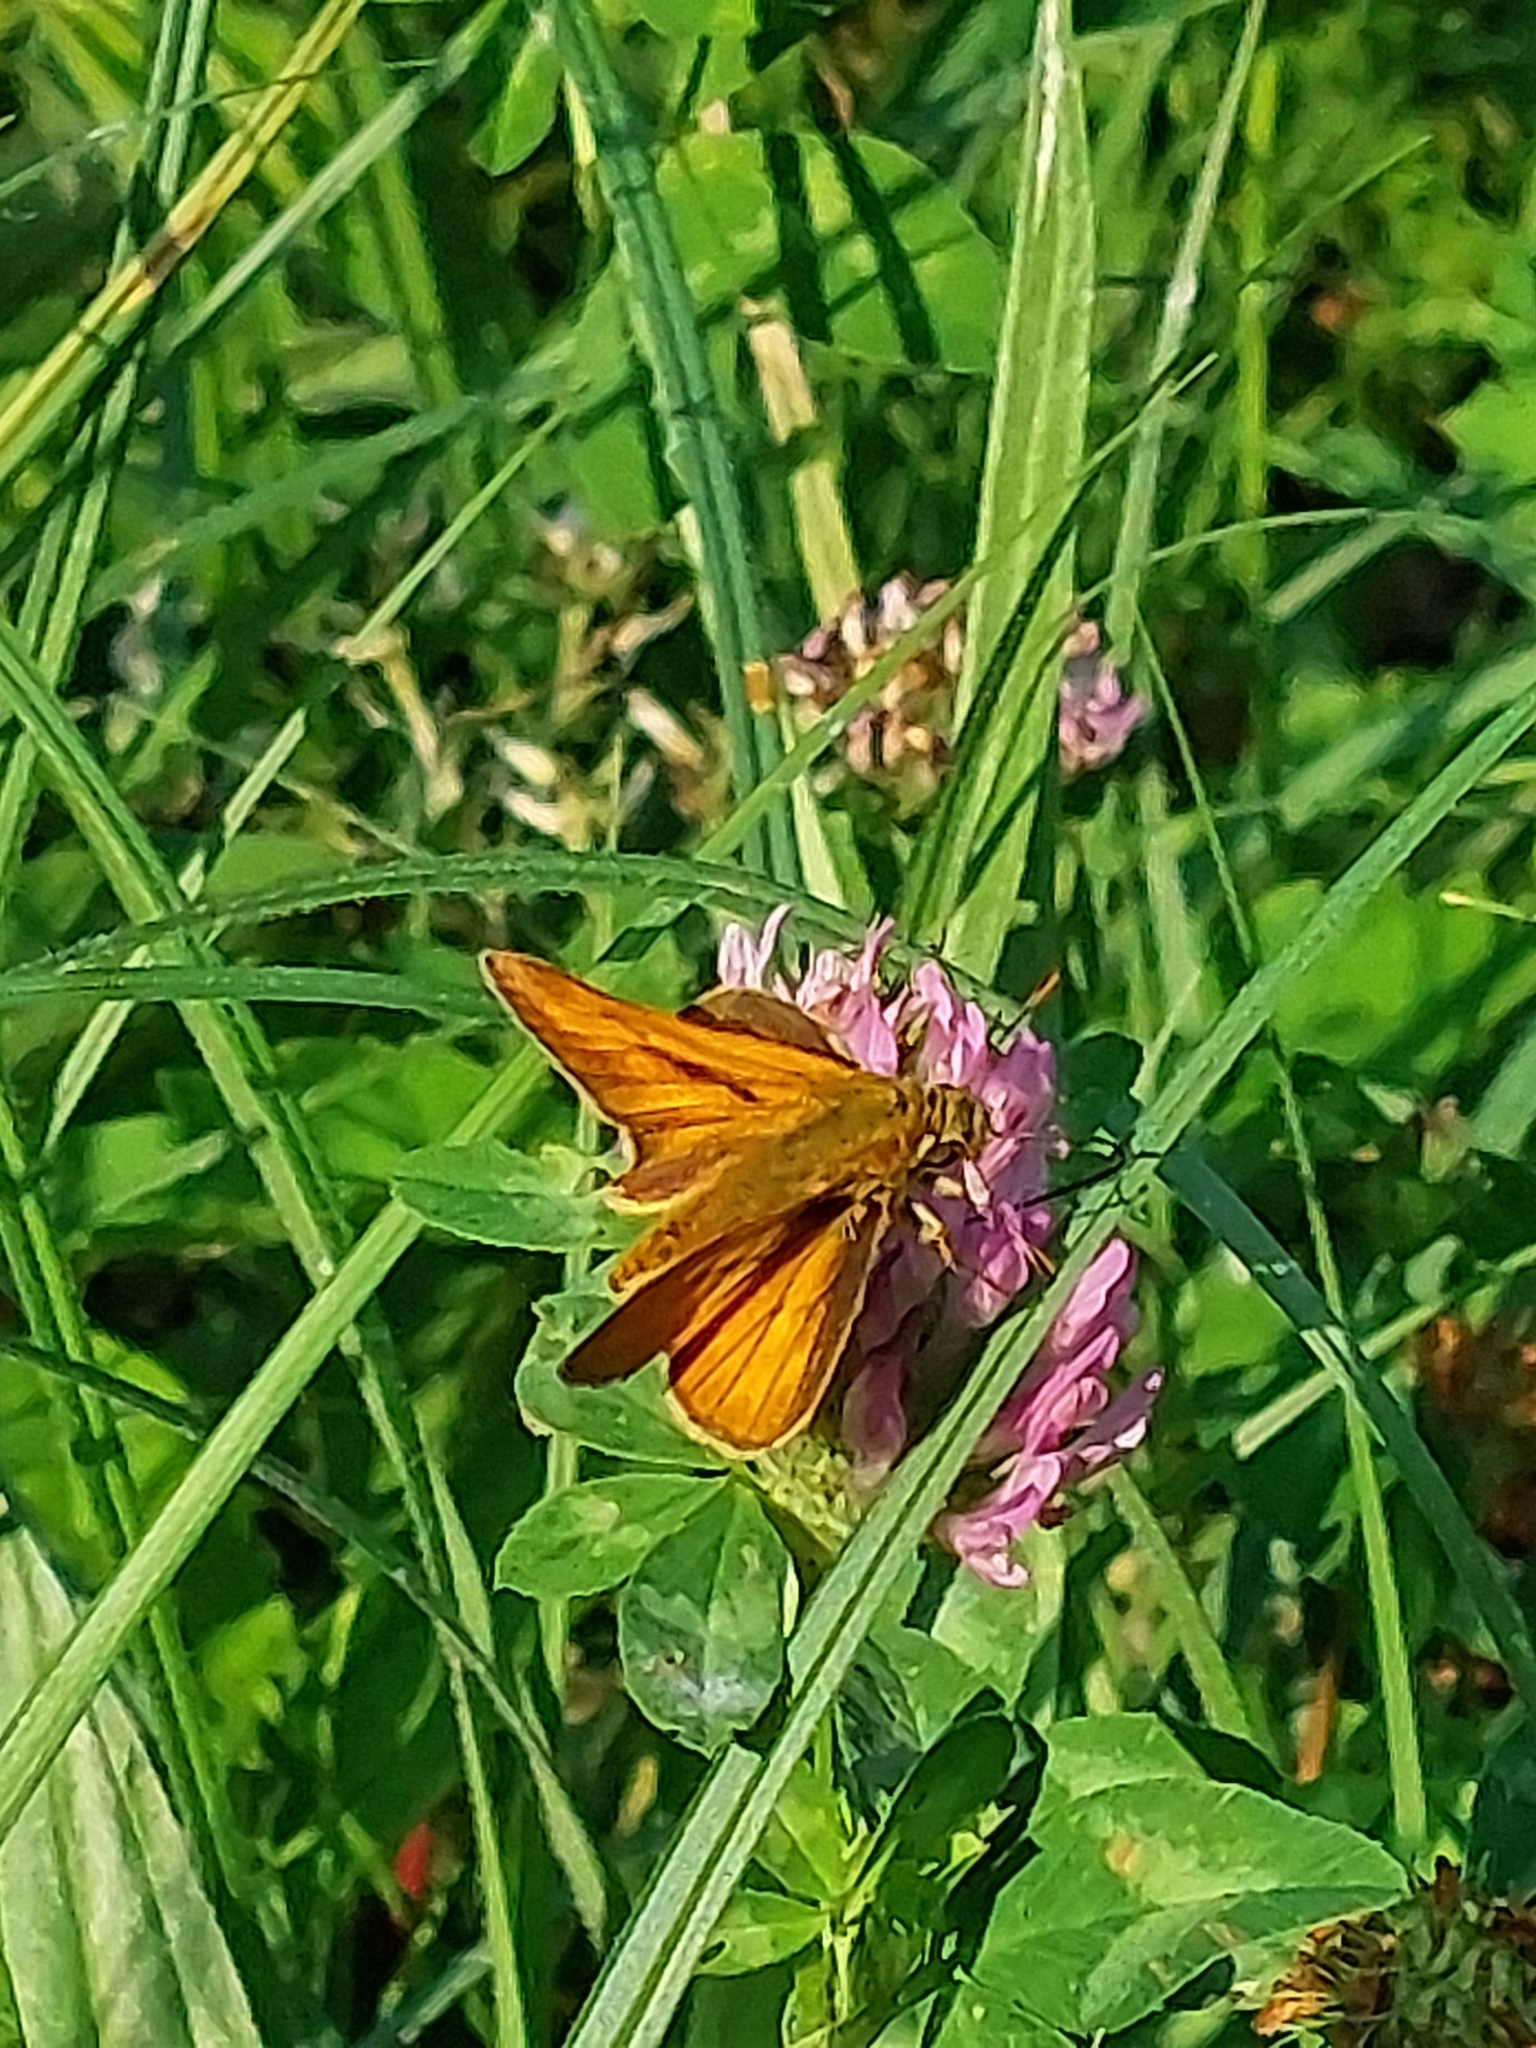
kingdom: Animalia
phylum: Arthropoda
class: Insecta
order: Lepidoptera
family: Hesperiidae
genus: Ochlodes
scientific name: Ochlodes venata
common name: Large skipper
